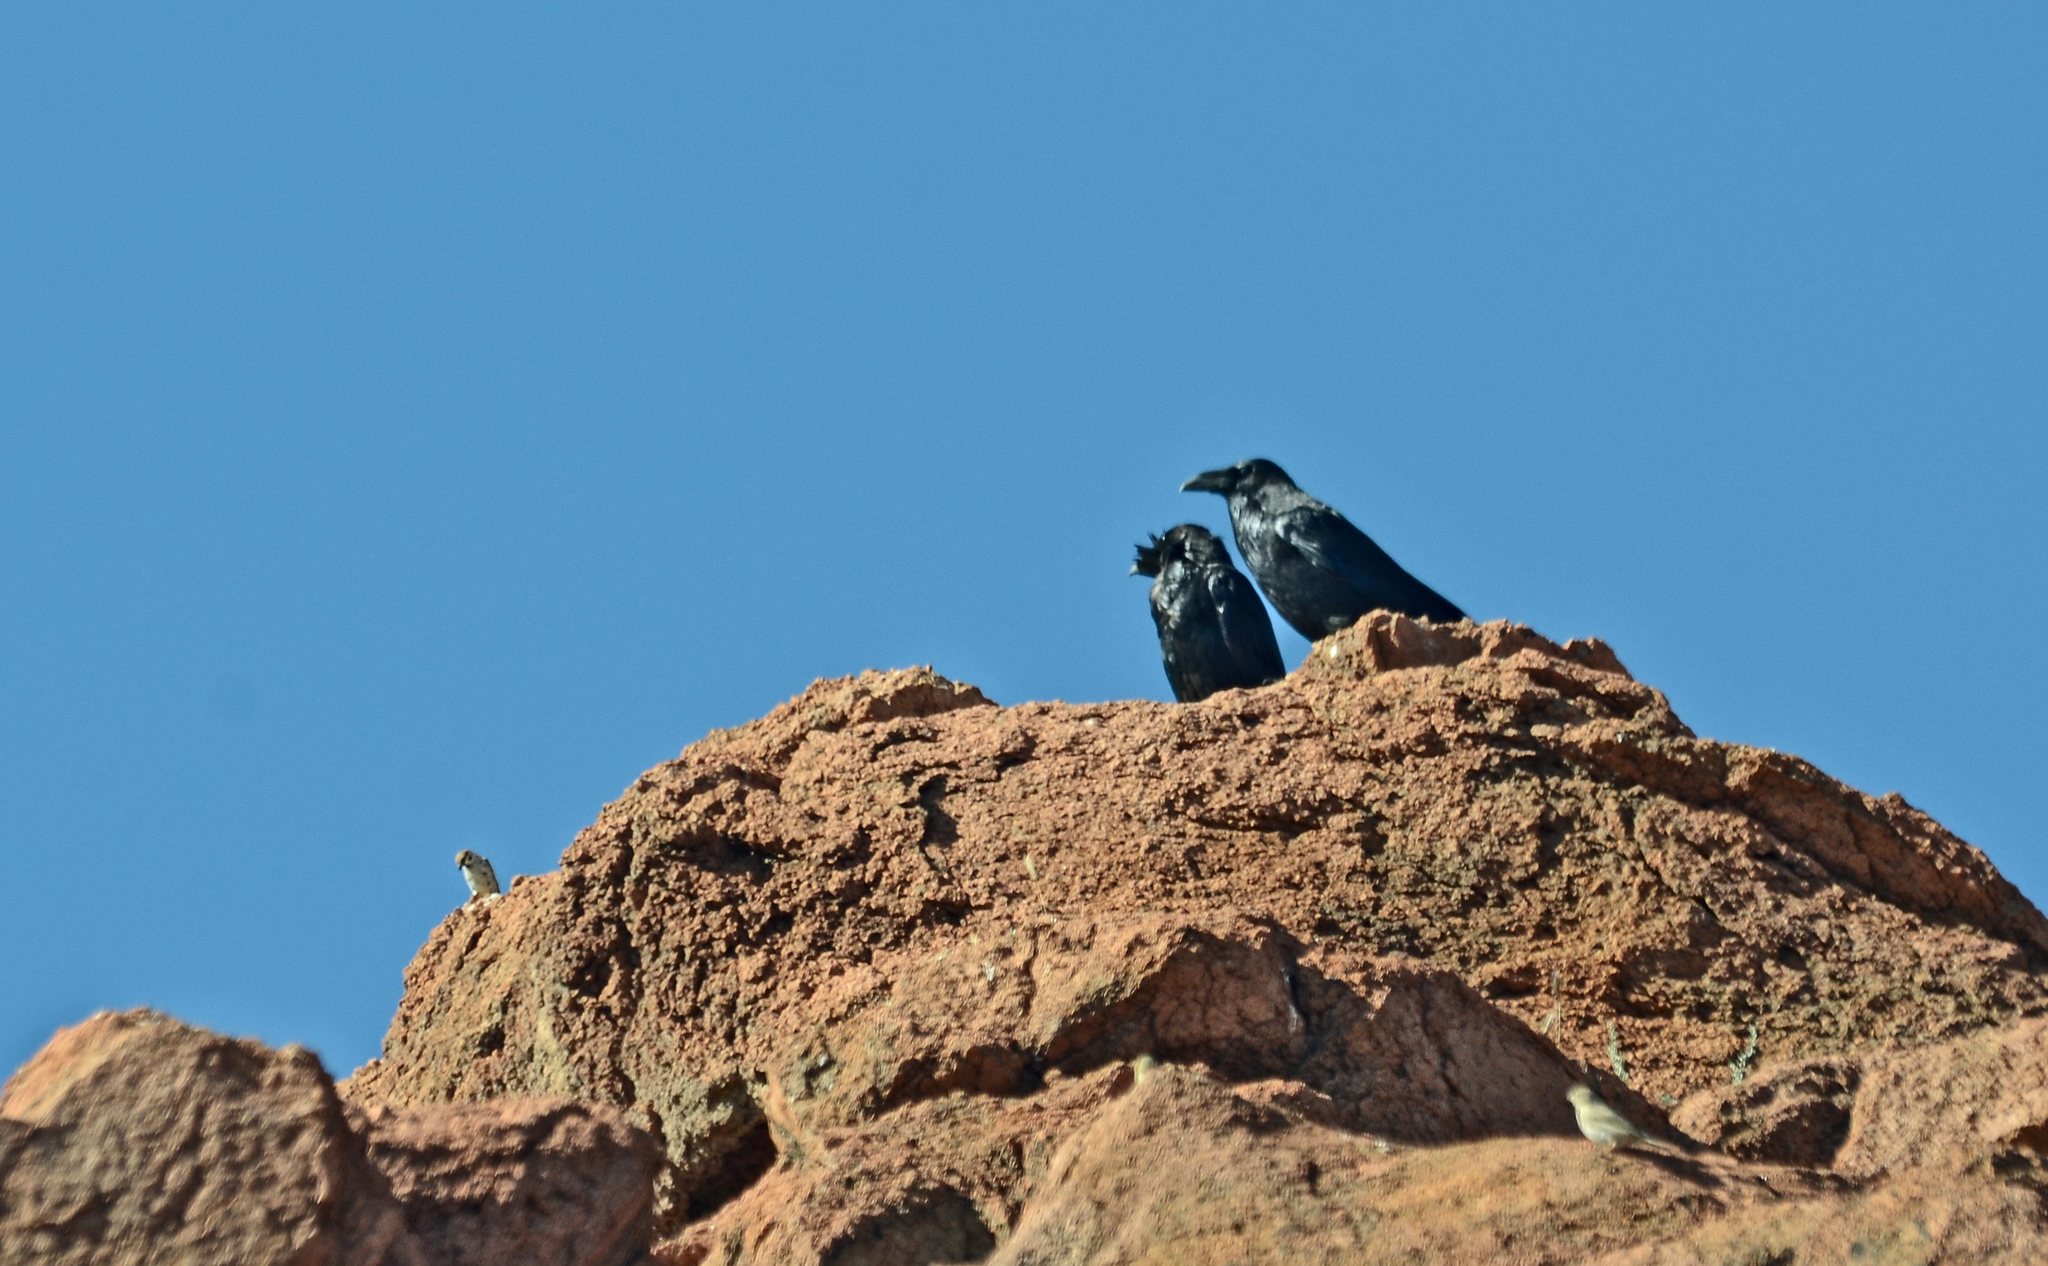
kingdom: Animalia
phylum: Chordata
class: Aves
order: Passeriformes
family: Corvidae
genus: Corvus
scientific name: Corvus corax
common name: Common raven
